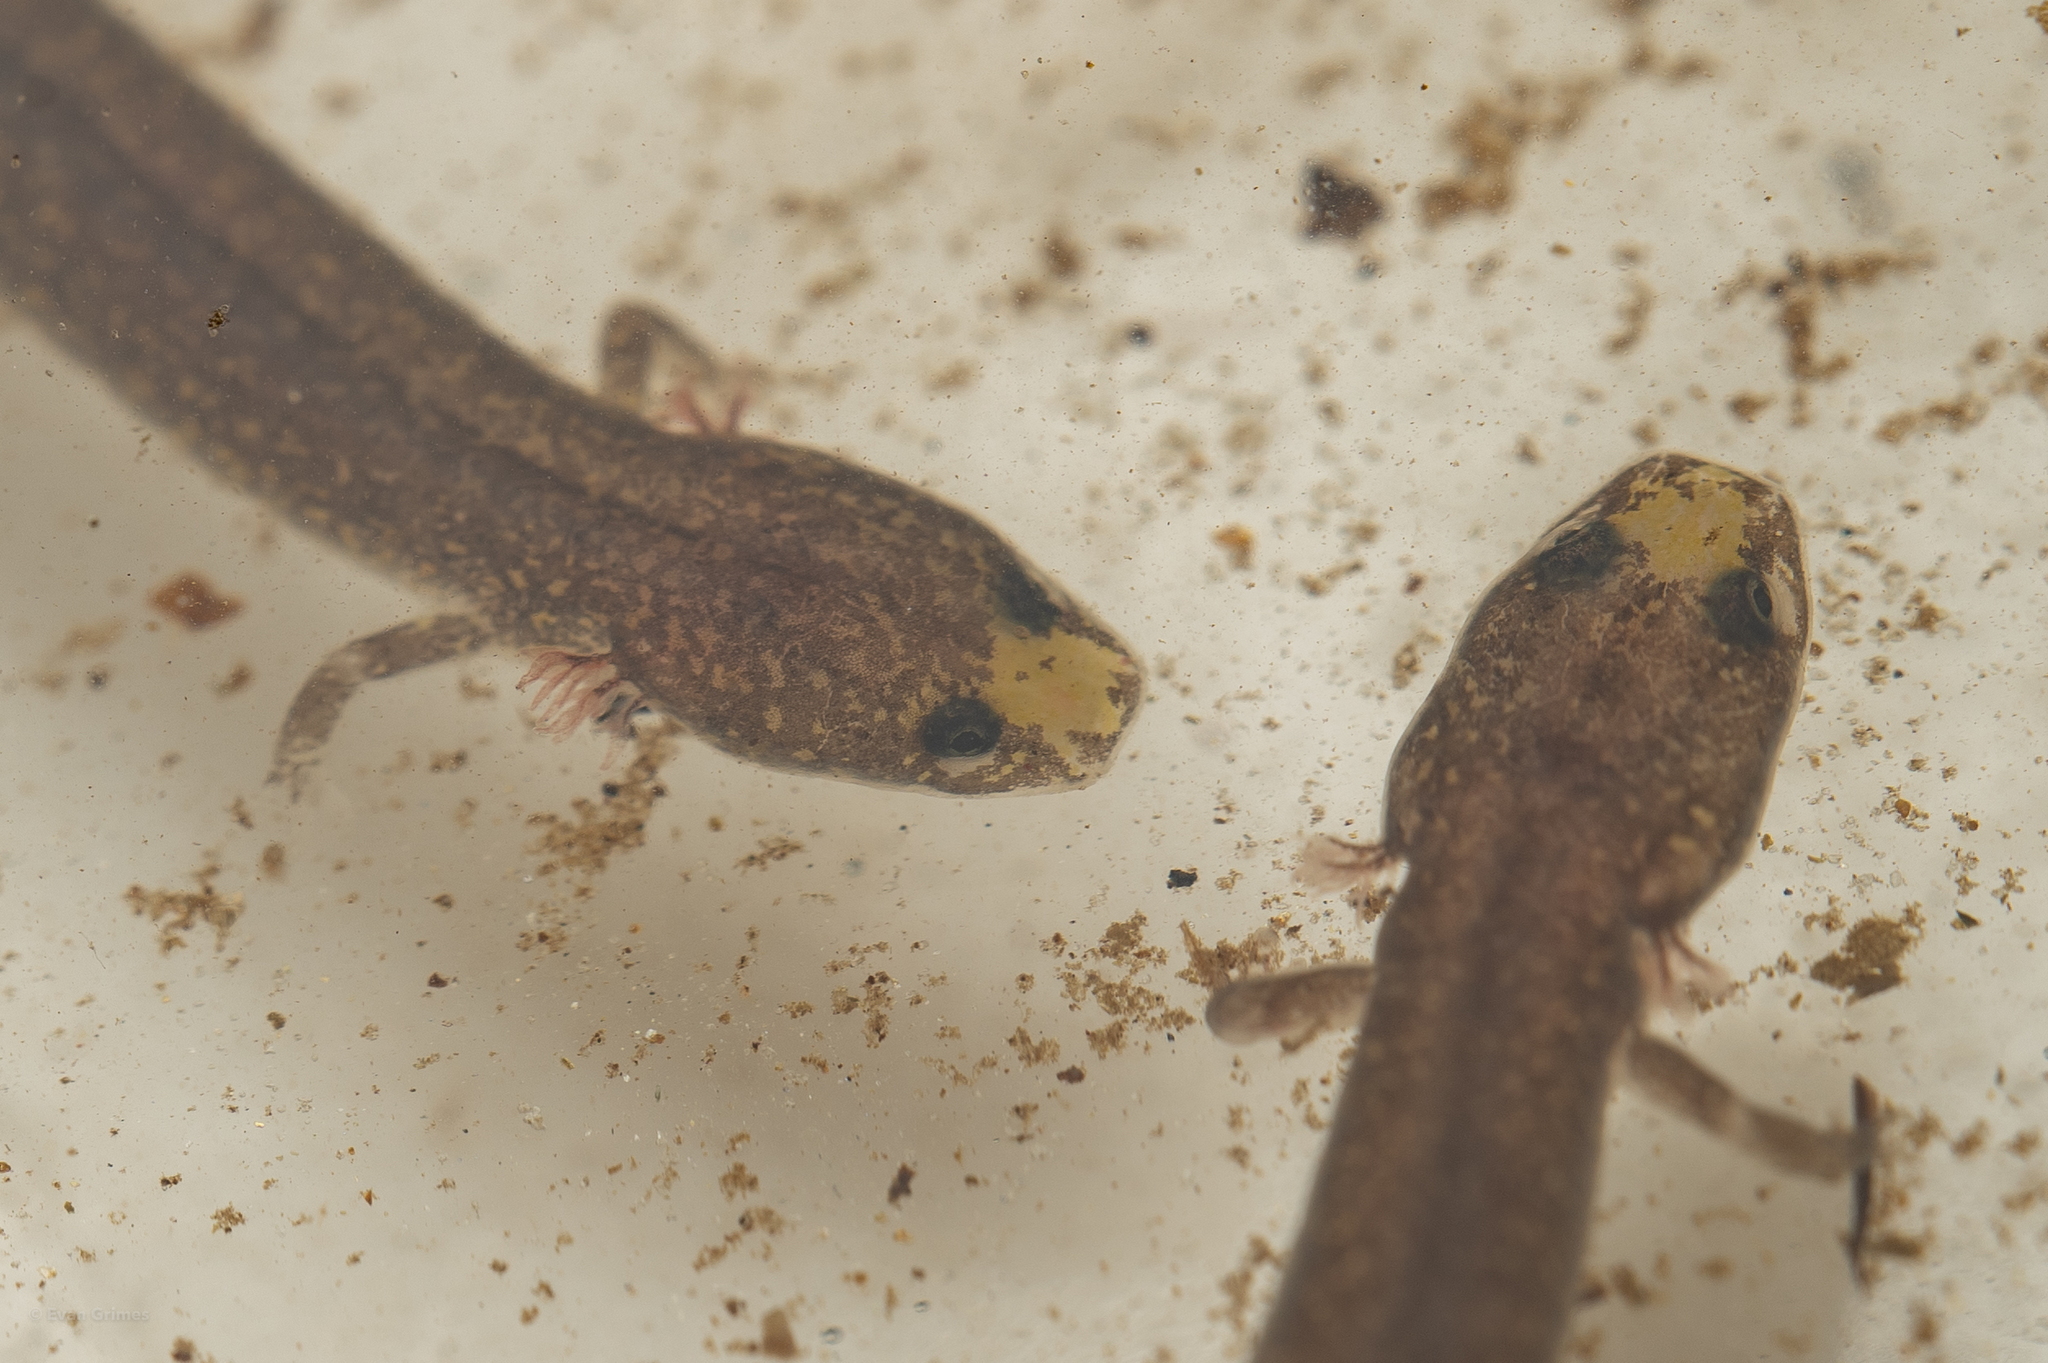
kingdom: Animalia
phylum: Chordata
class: Amphibia
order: Caudata
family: Plethodontidae
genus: Urspelerpes
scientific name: Urspelerpes brucei
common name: Patch-nosed salamander
